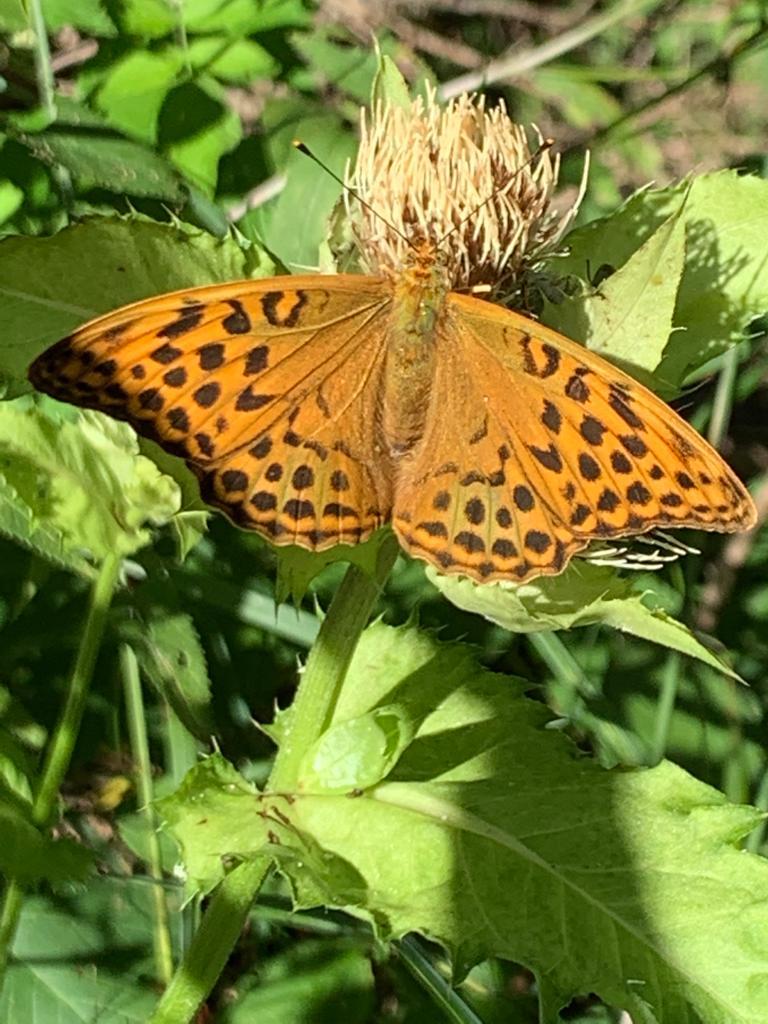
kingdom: Animalia
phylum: Arthropoda
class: Insecta
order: Lepidoptera
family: Nymphalidae
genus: Argynnis
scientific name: Argynnis paphia
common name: Silver-washed fritillary
